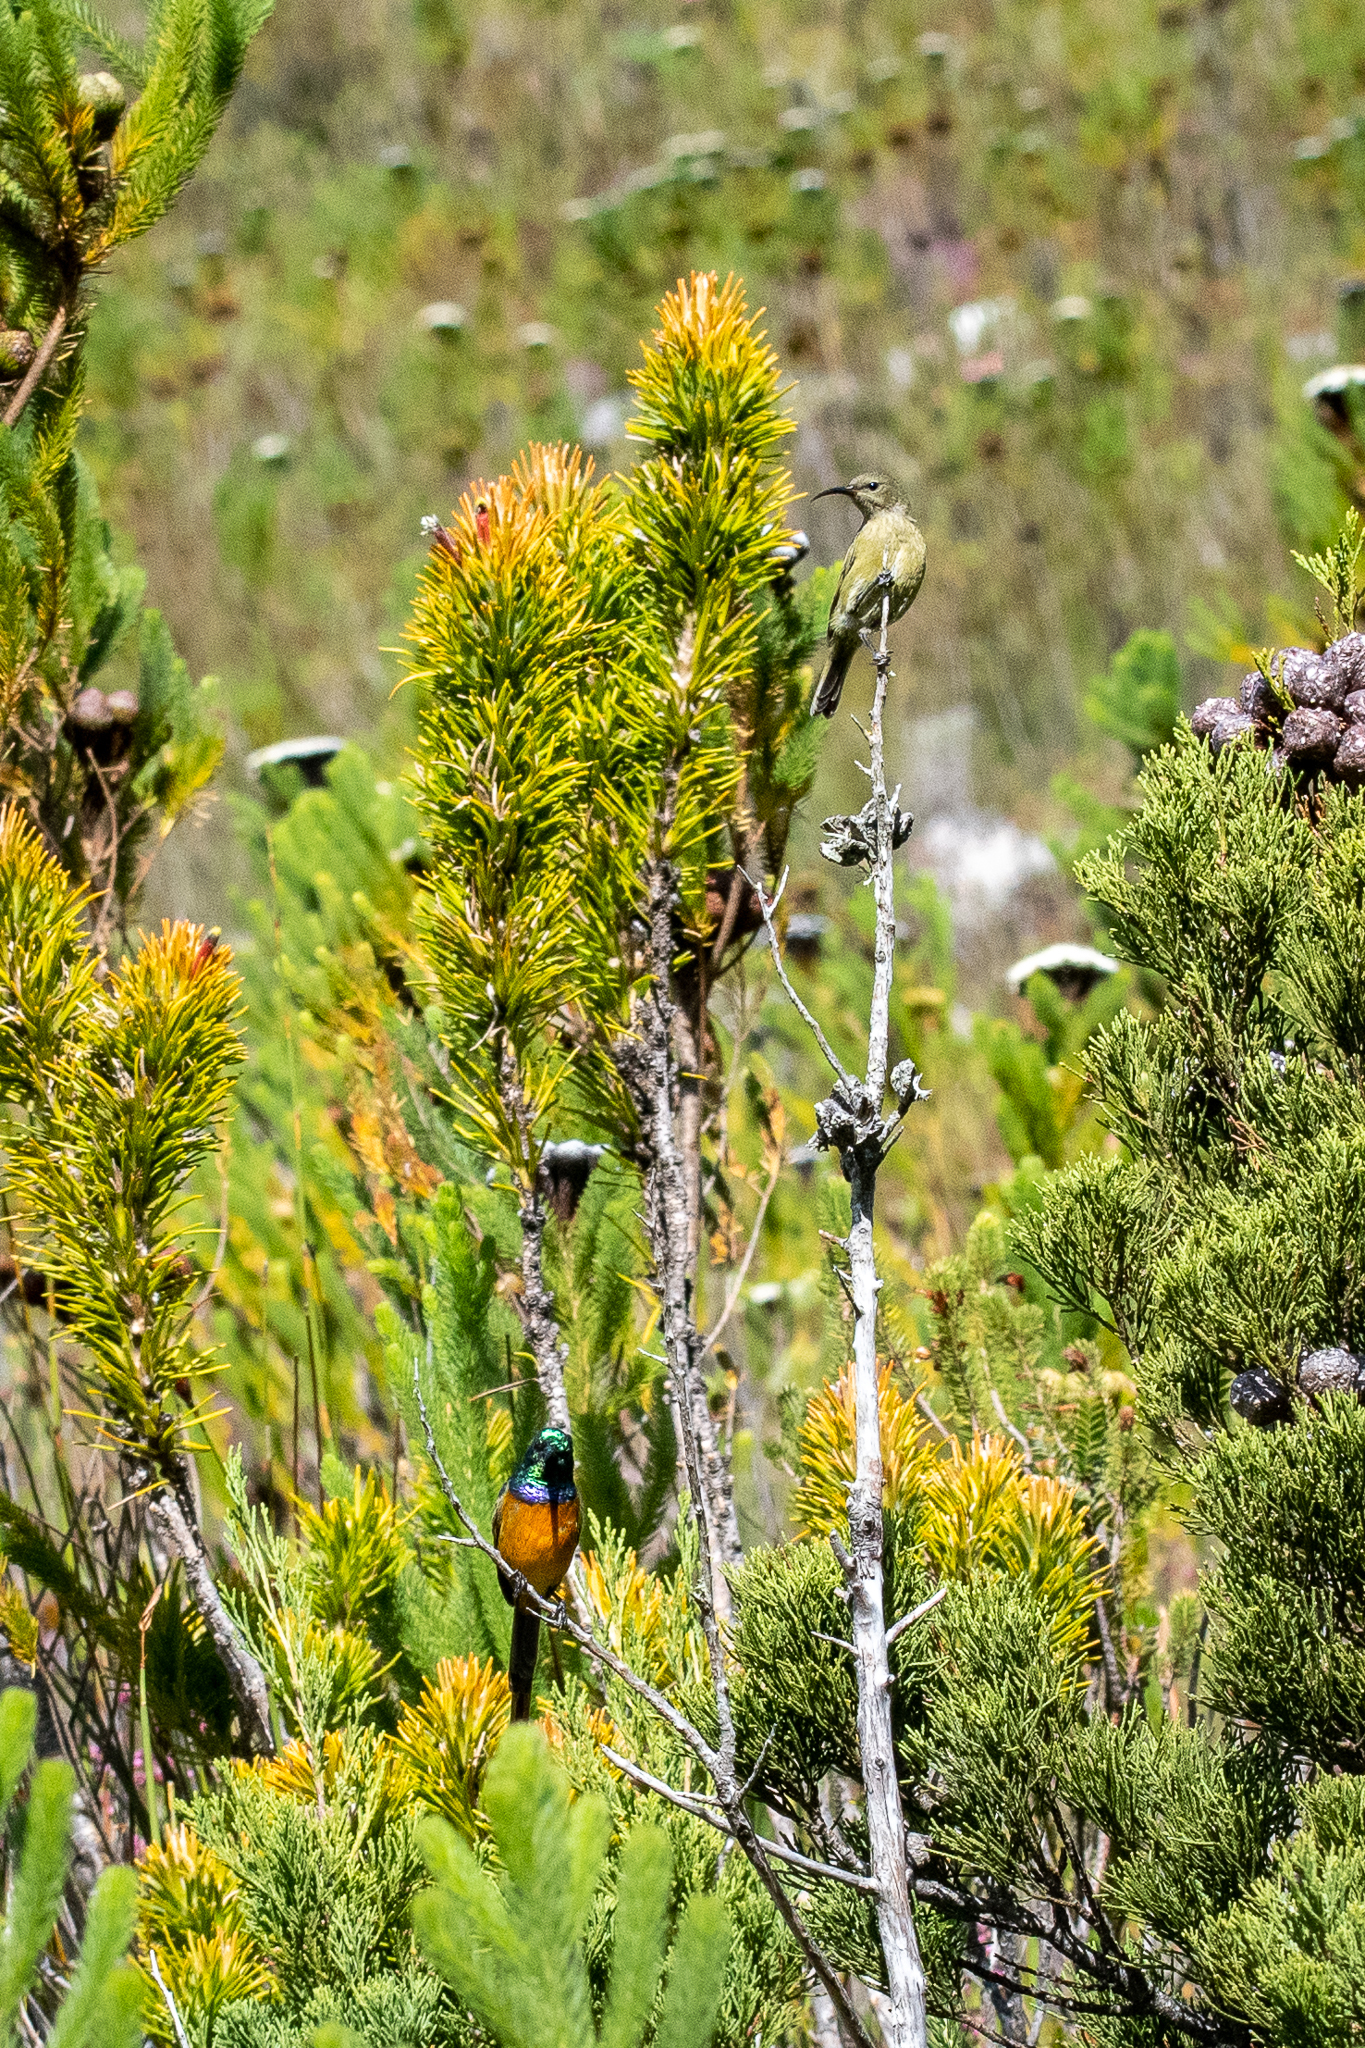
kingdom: Animalia
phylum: Chordata
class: Aves
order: Passeriformes
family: Nectariniidae
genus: Anthobaphes
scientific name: Anthobaphes violacea
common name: Orange-breasted sunbird
